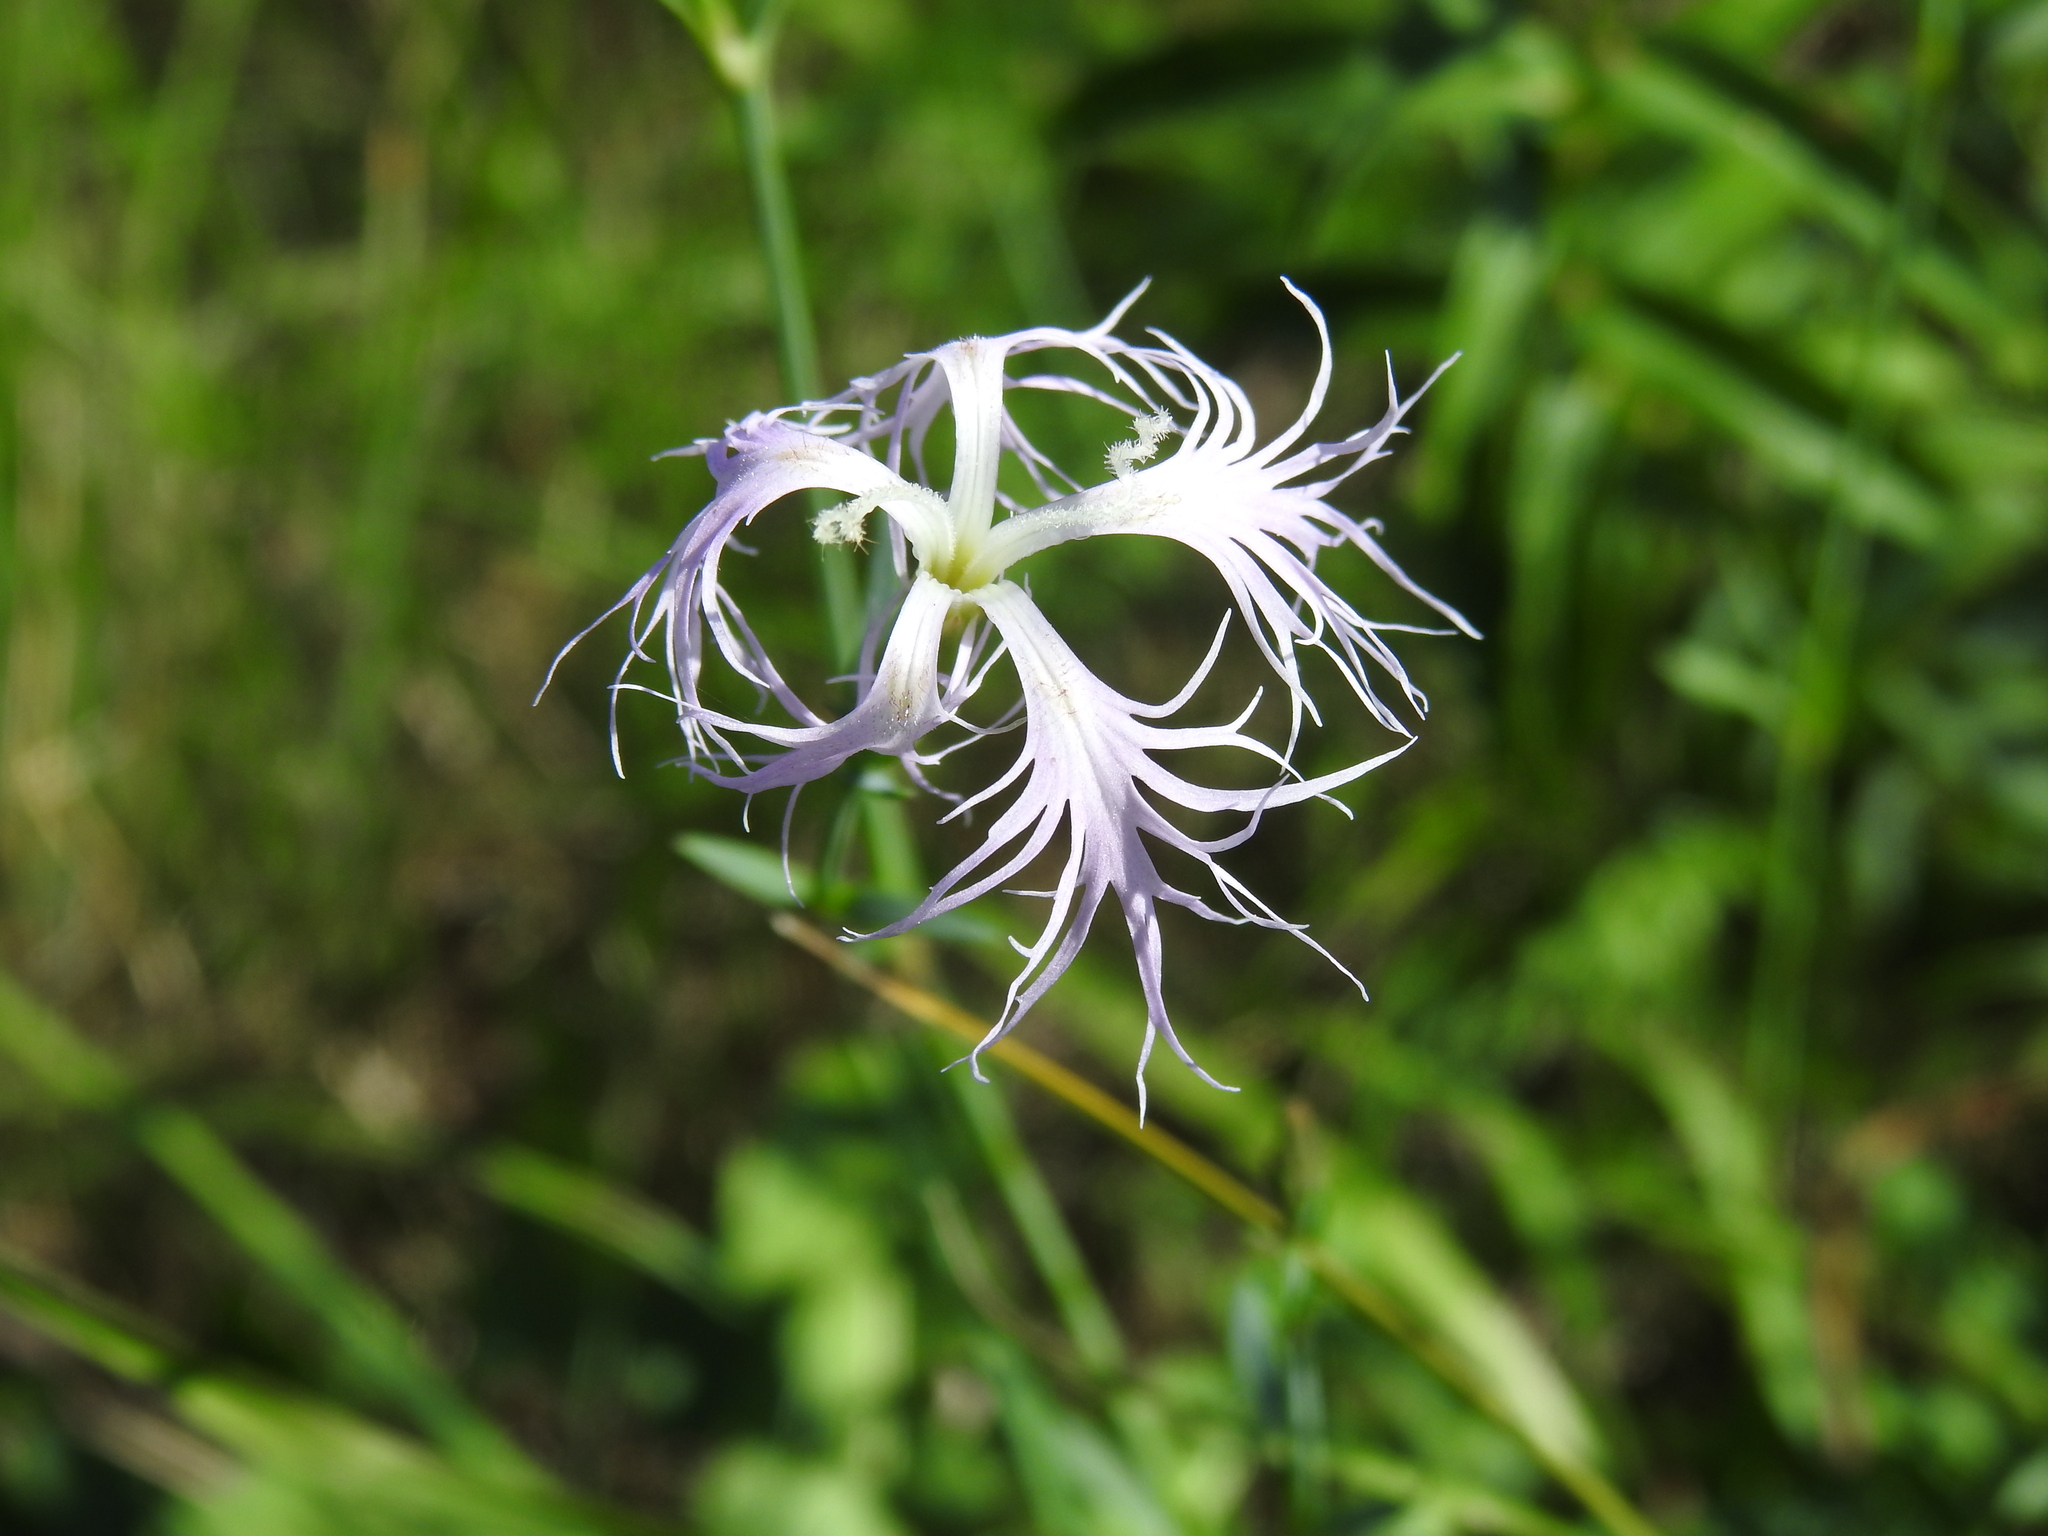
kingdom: Plantae
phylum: Tracheophyta
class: Magnoliopsida
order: Caryophyllales
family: Caryophyllaceae
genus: Dianthus
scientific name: Dianthus superbus
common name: Fringed pink
